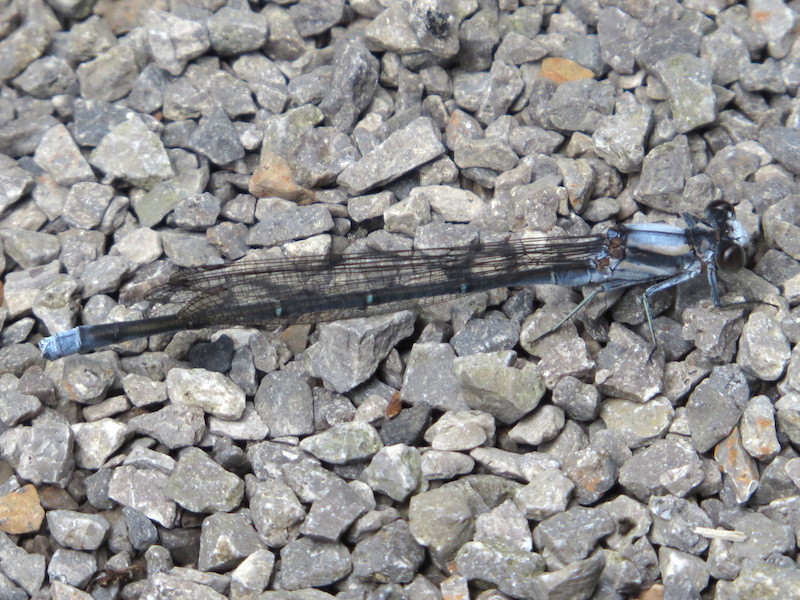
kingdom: Animalia
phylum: Arthropoda
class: Insecta
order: Odonata
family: Coenagrionidae
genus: Argia
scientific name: Argia moesta
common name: Powdered dancer
